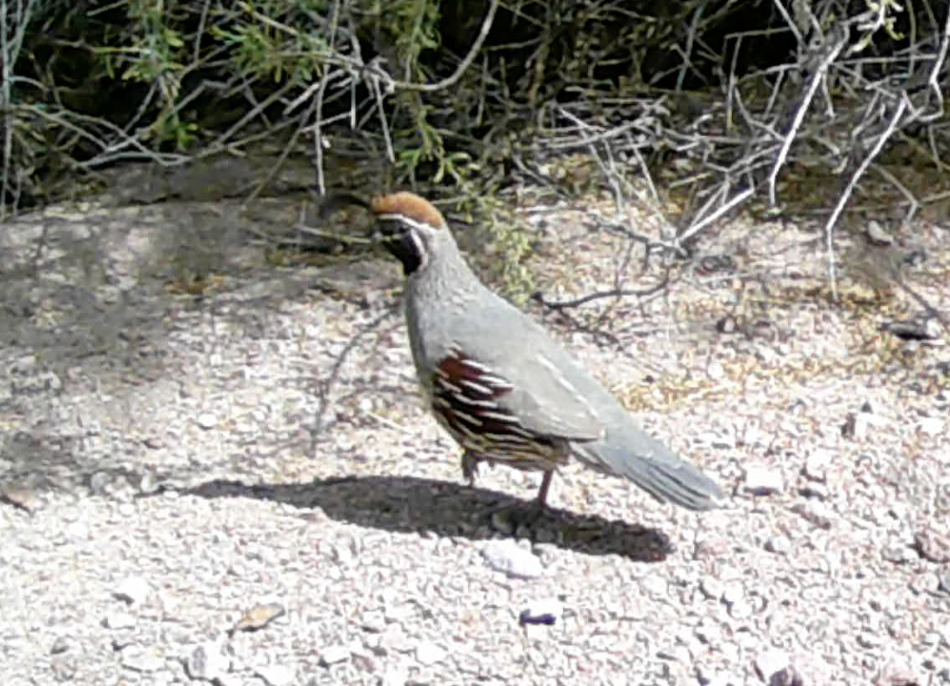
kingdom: Animalia
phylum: Chordata
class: Aves
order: Galliformes
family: Odontophoridae
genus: Callipepla
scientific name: Callipepla gambelii
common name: Gambel's quail
